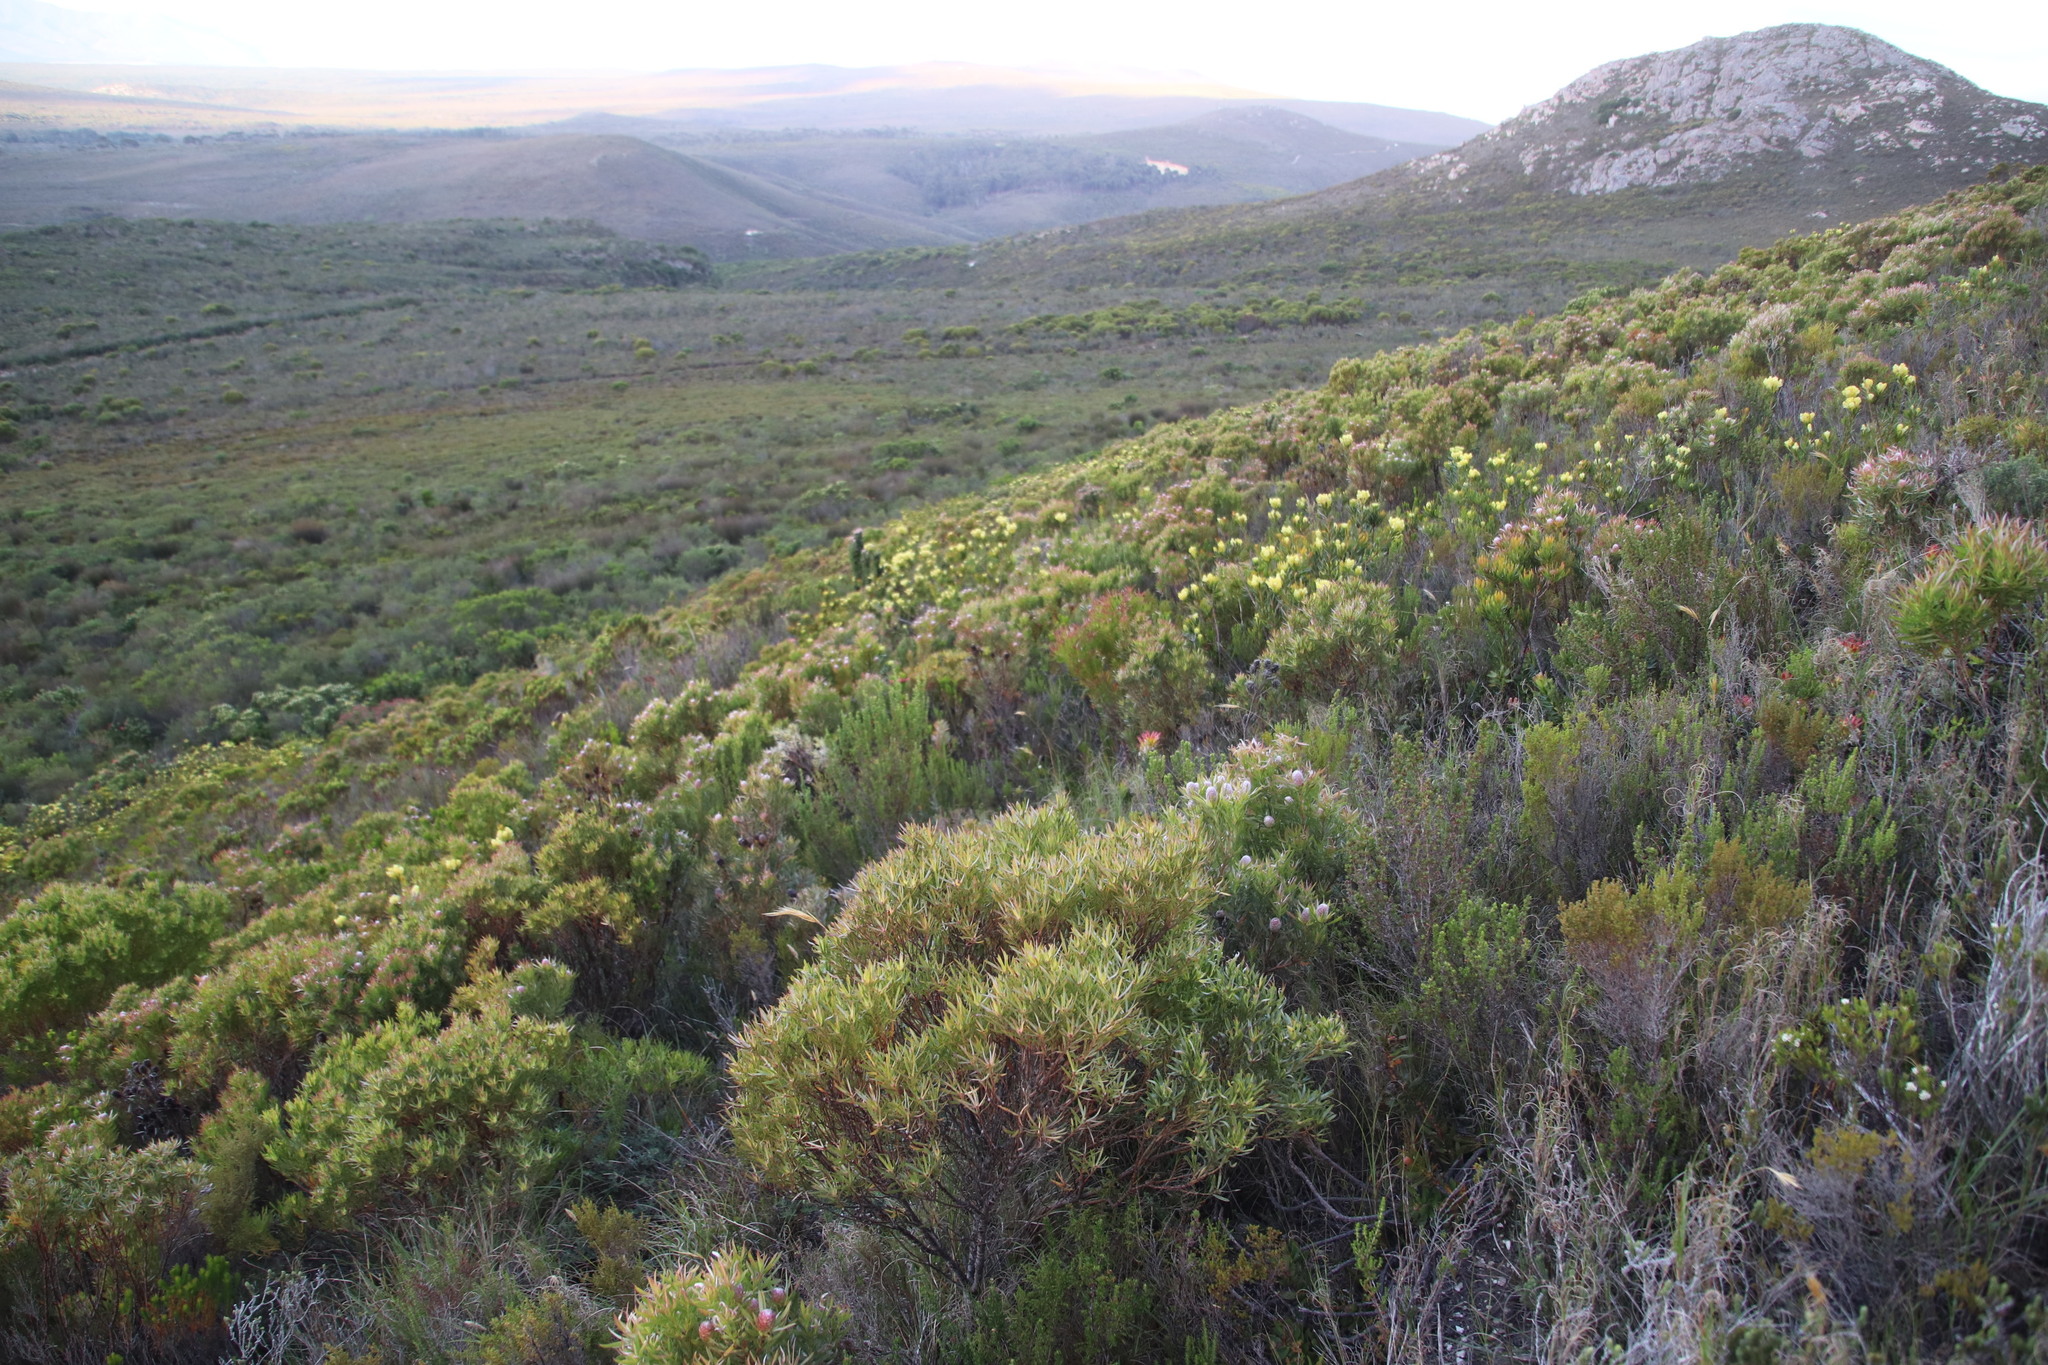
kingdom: Plantae
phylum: Tracheophyta
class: Magnoliopsida
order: Proteales
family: Proteaceae
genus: Leucadendron
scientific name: Leucadendron xanthoconus
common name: Sickle-leaf conebush
